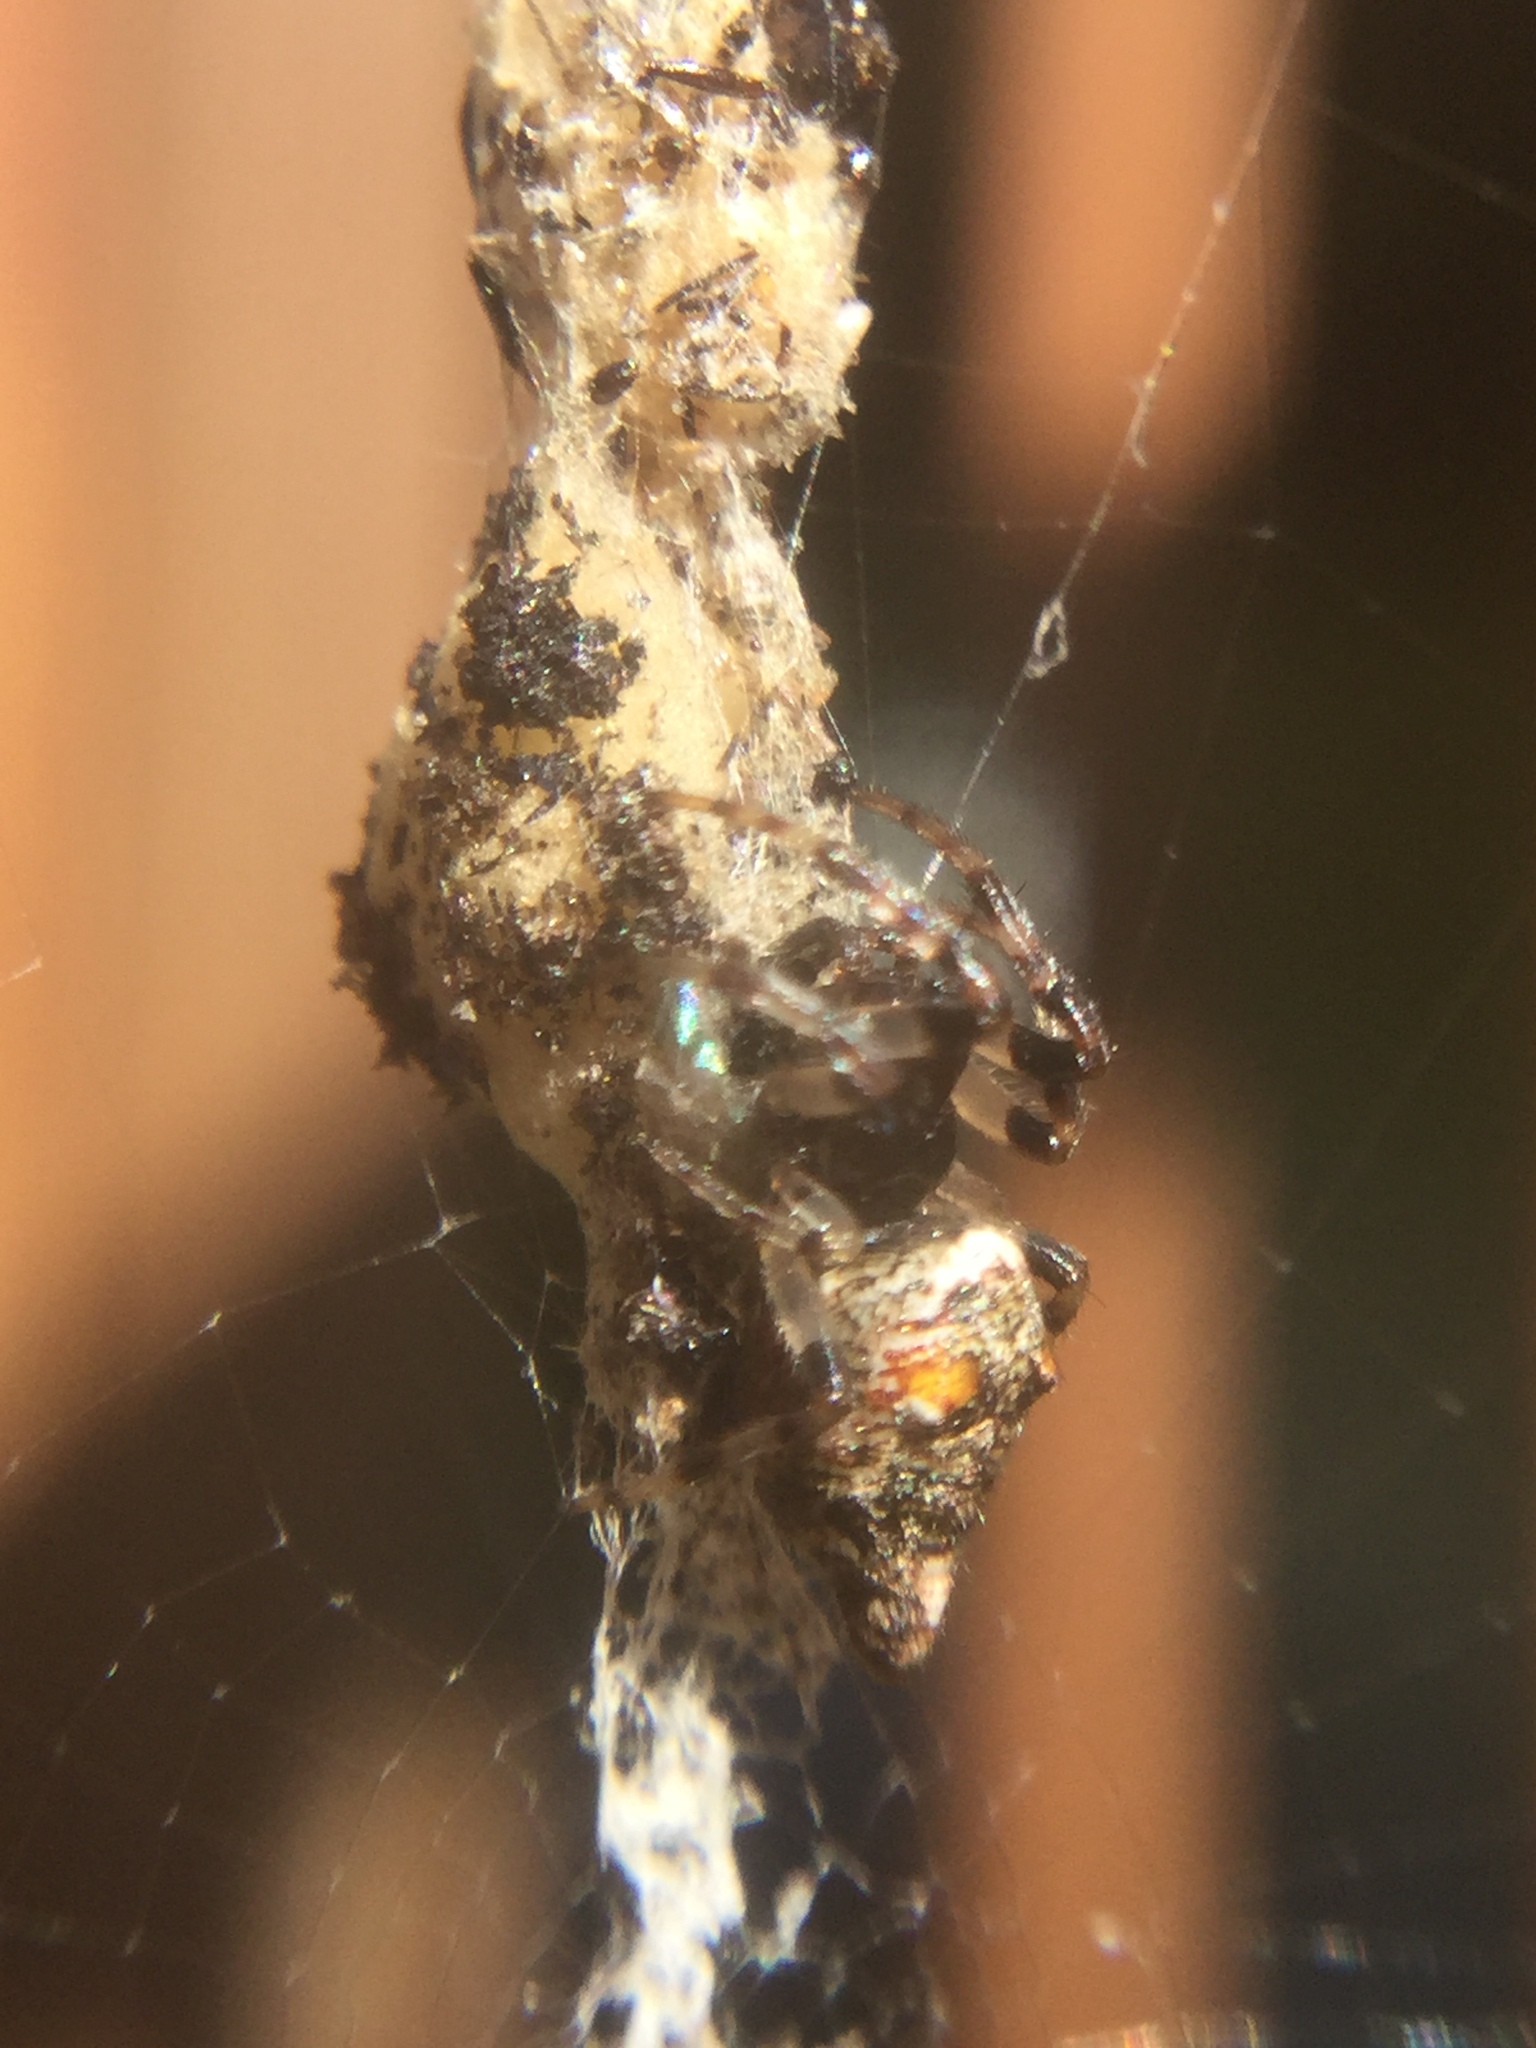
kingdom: Animalia
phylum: Arthropoda
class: Arachnida
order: Araneae
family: Araneidae
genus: Cyclosa
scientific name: Cyclosa turbinata
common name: Orb weavers
